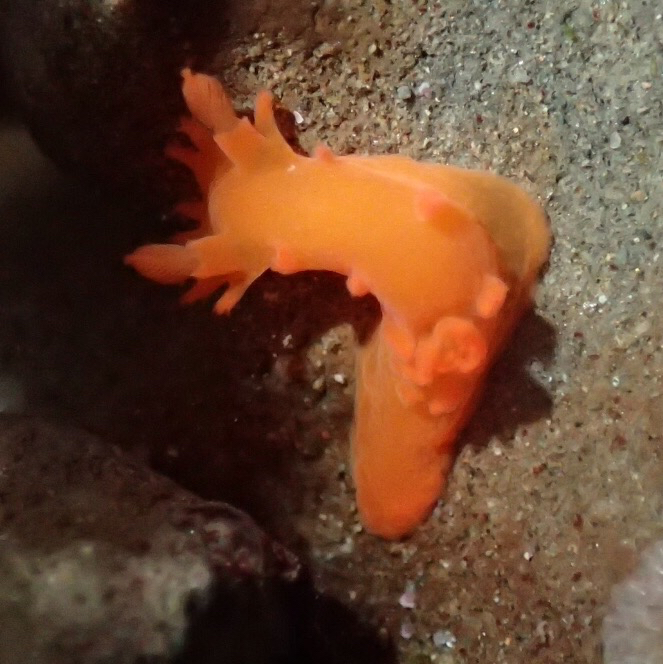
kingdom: Animalia
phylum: Mollusca
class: Gastropoda
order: Nudibranchia
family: Polyceridae
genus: Triopha
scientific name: Triopha maculata
